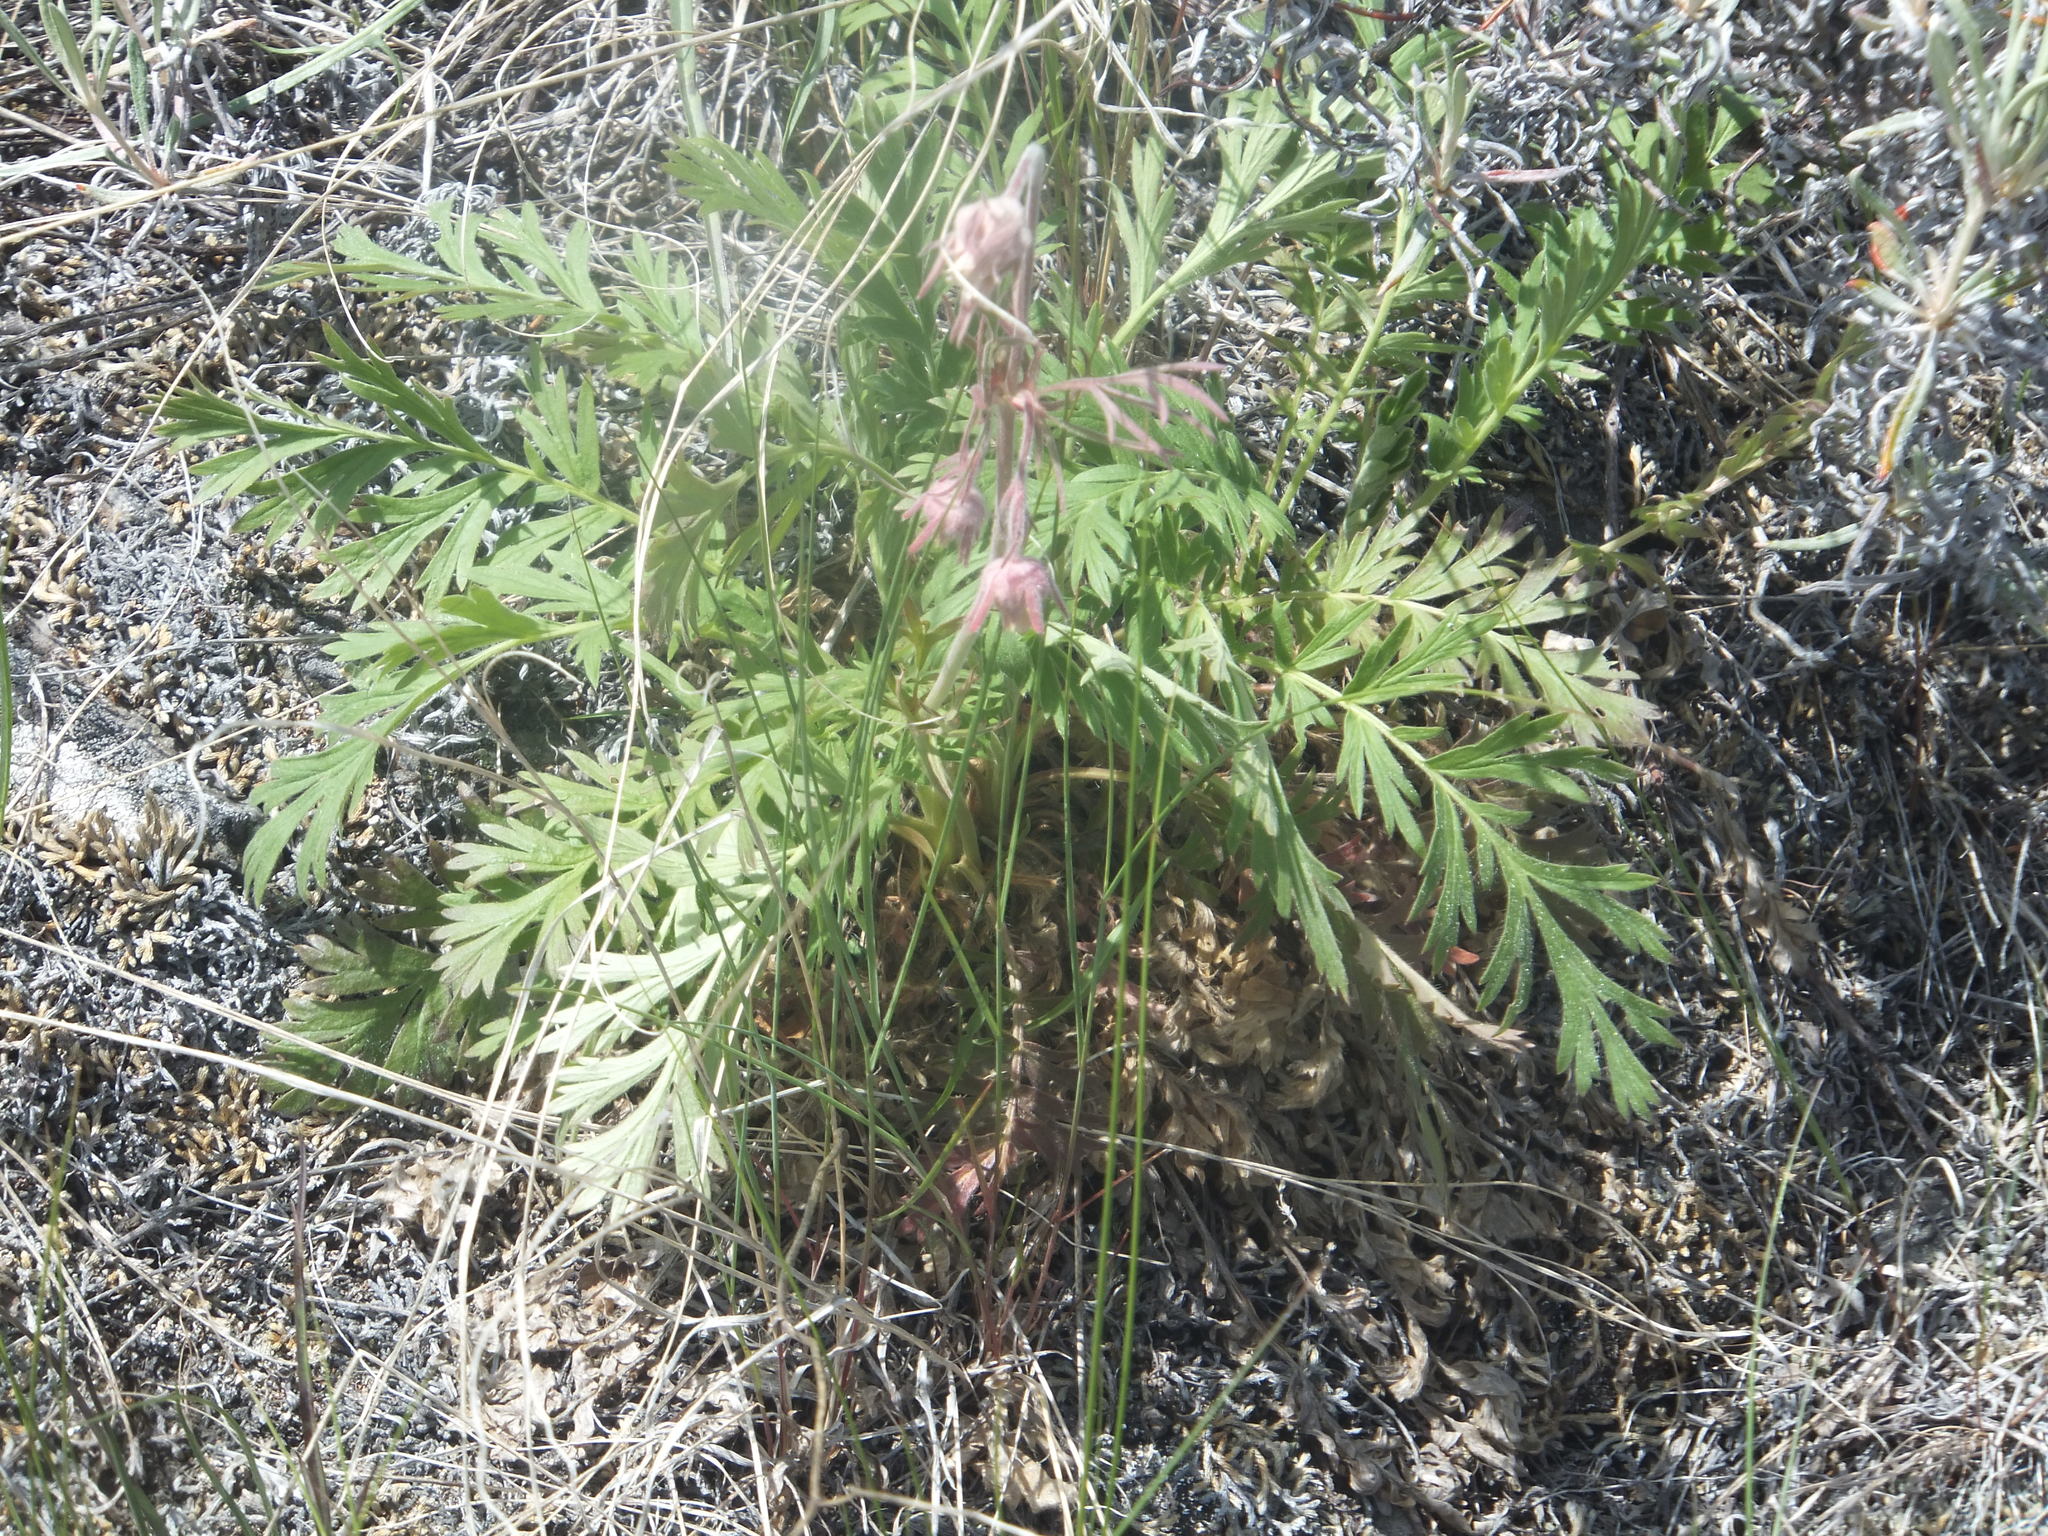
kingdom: Plantae
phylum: Tracheophyta
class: Magnoliopsida
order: Rosales
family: Rosaceae
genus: Geum
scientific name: Geum triflorum
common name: Old man's whiskers
